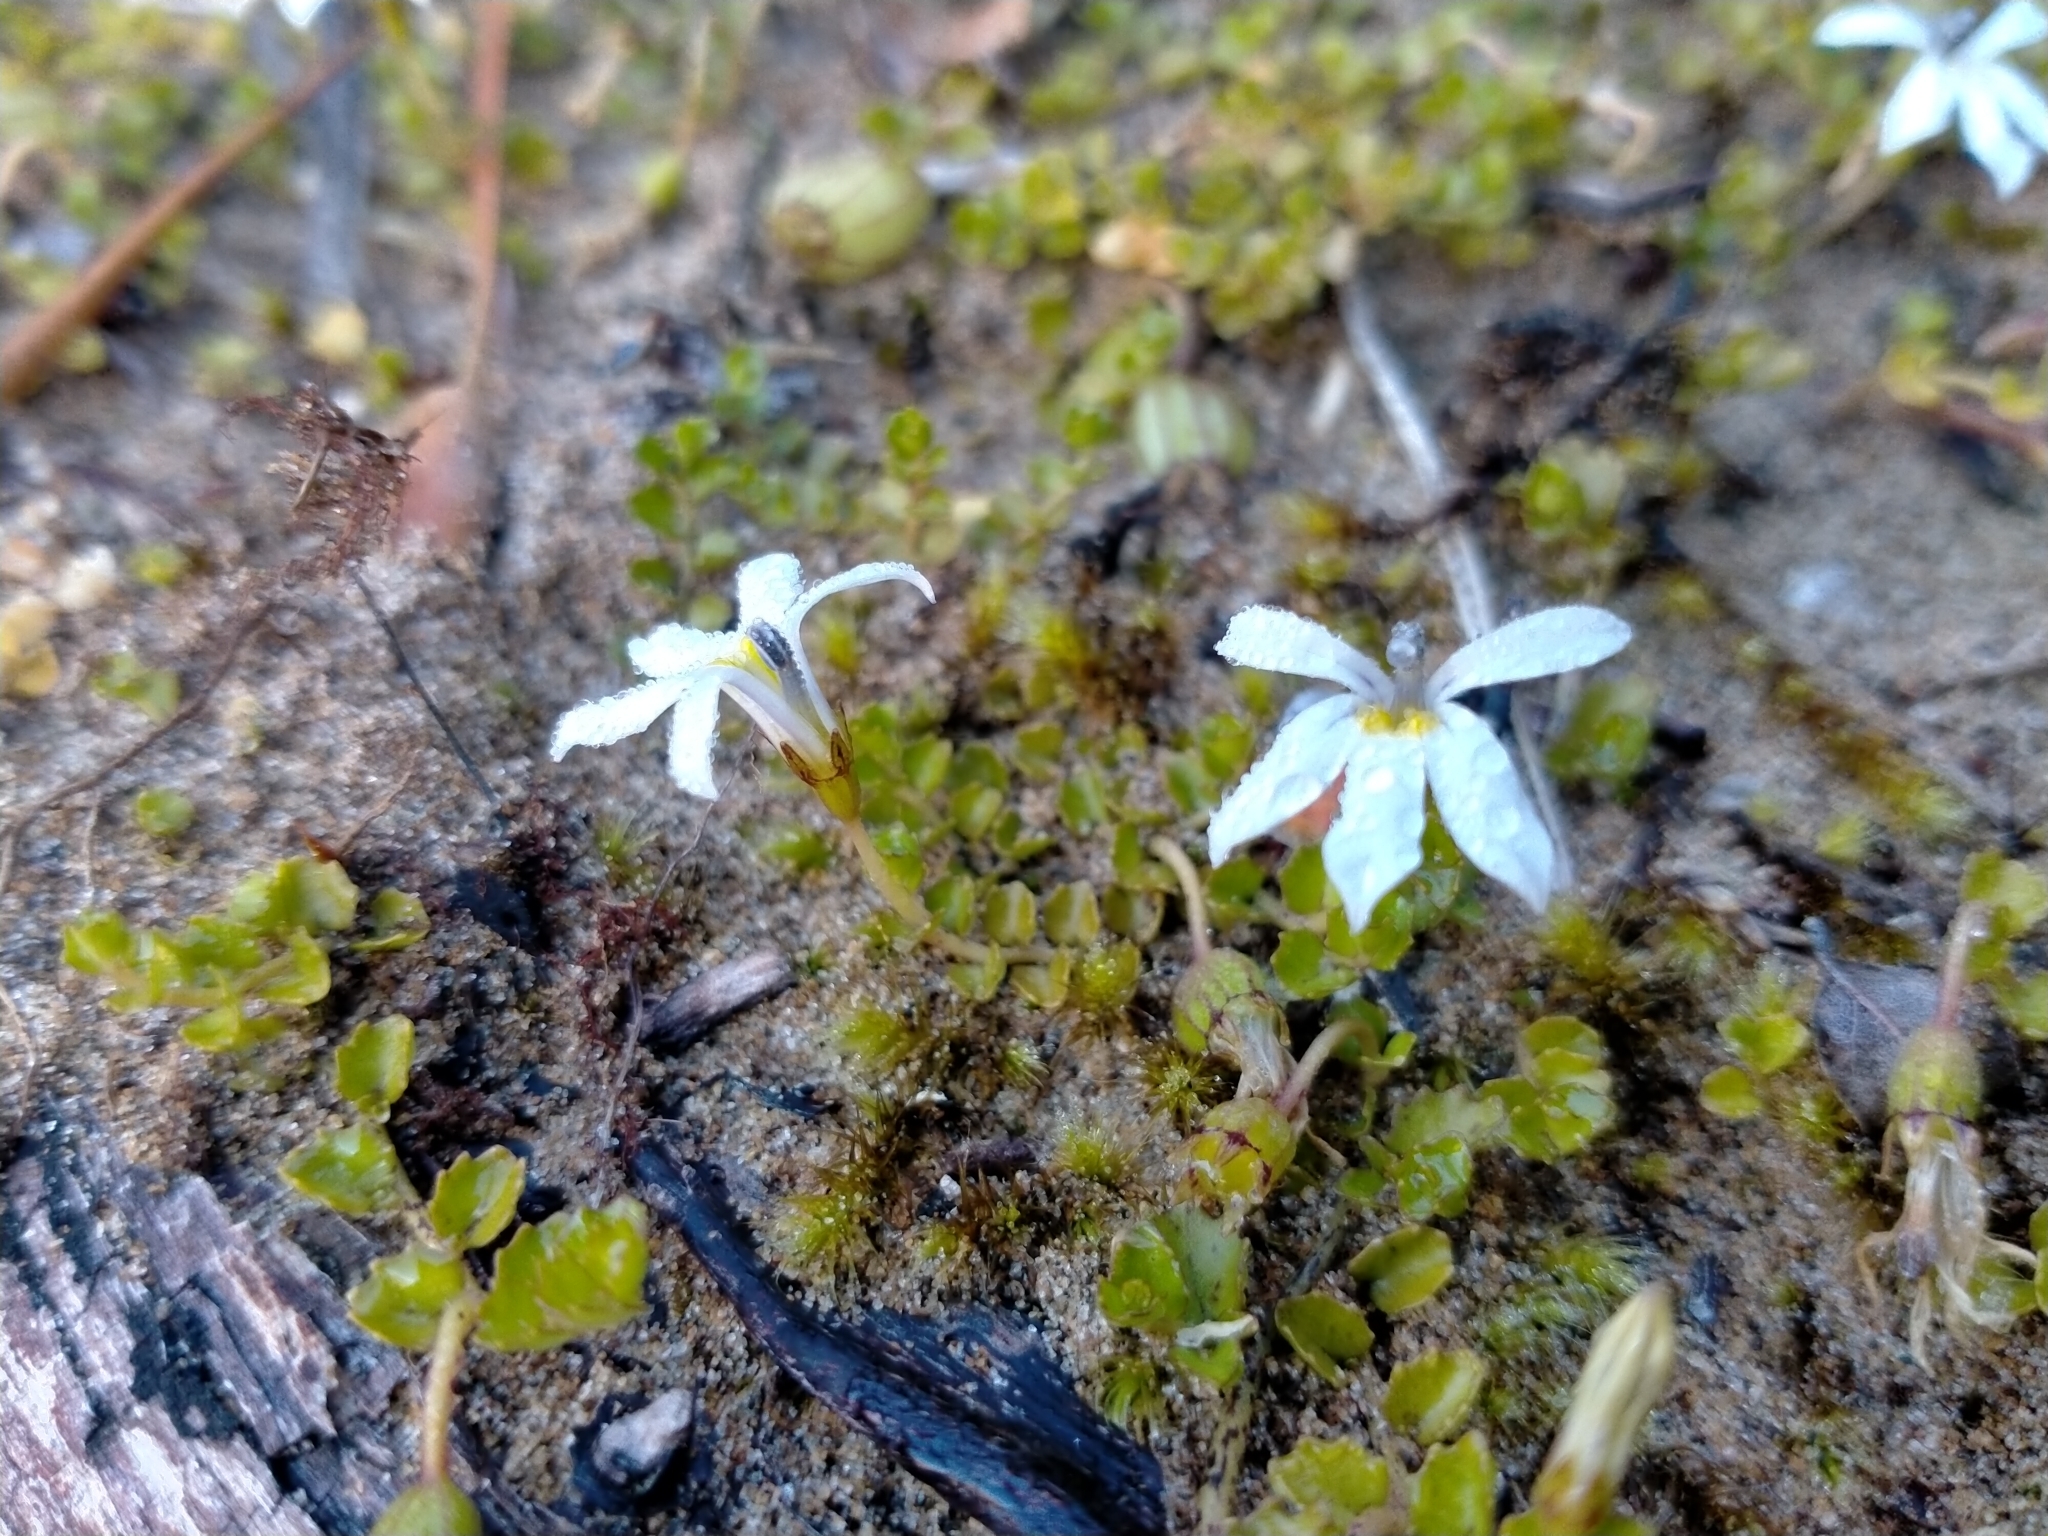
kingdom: Plantae
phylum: Tracheophyta
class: Magnoliopsida
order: Asterales
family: Campanulaceae
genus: Lobelia
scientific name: Lobelia angulata
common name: Lawn lobelia
